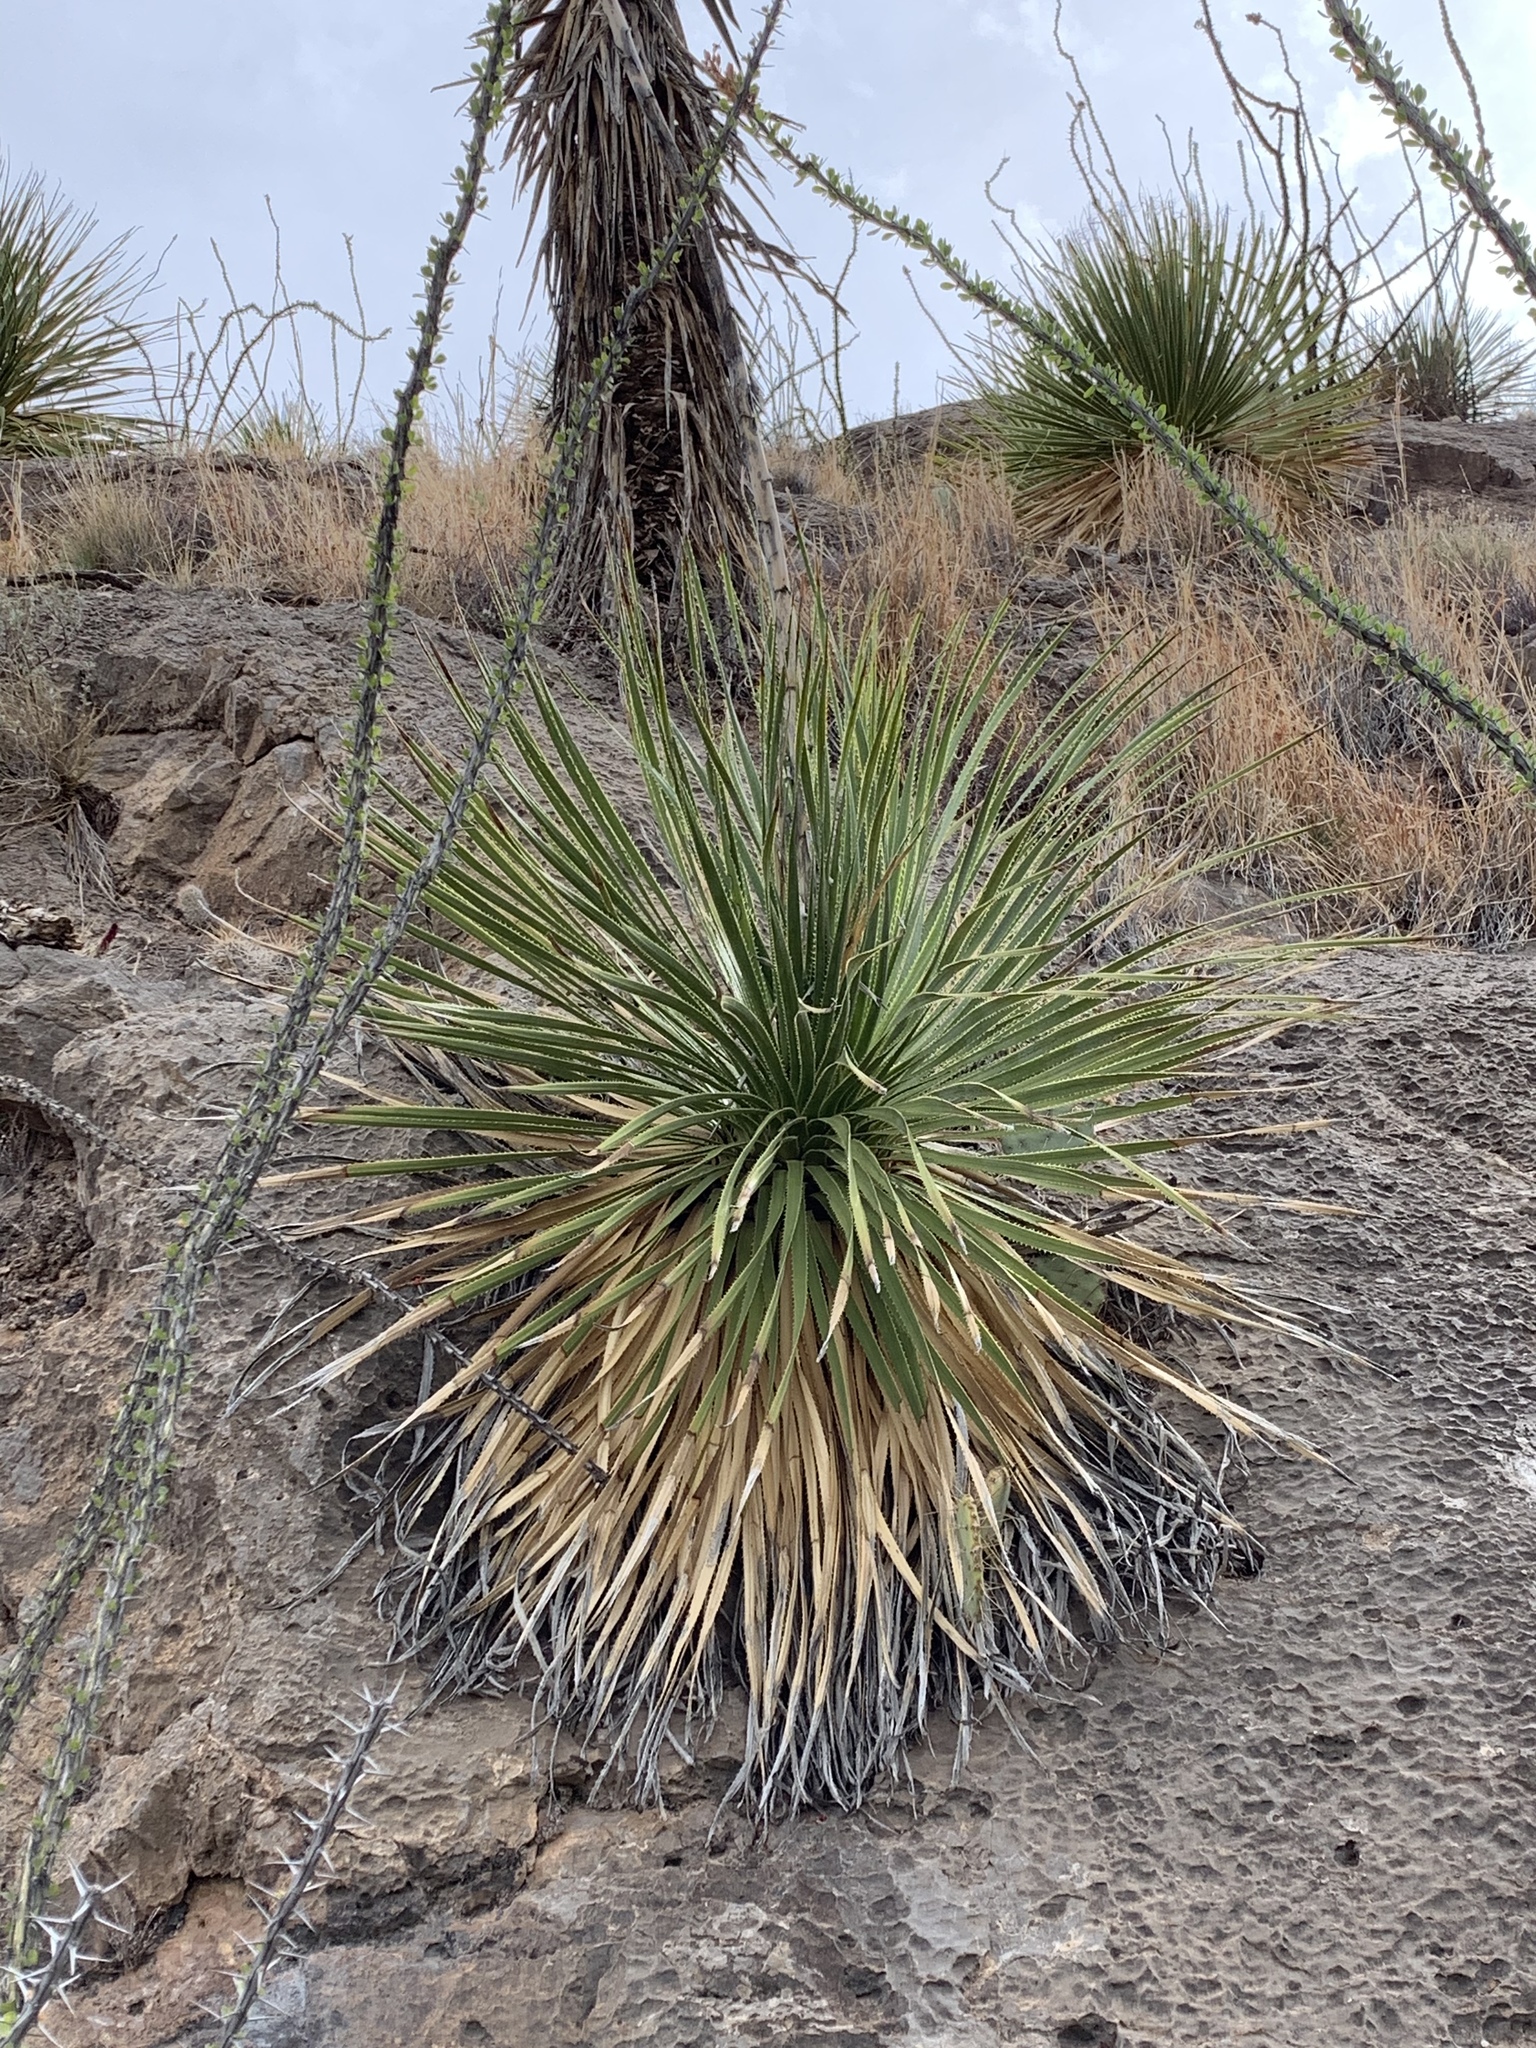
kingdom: Plantae
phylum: Tracheophyta
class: Liliopsida
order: Asparagales
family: Asparagaceae
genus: Dasylirion
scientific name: Dasylirion wheeleri
